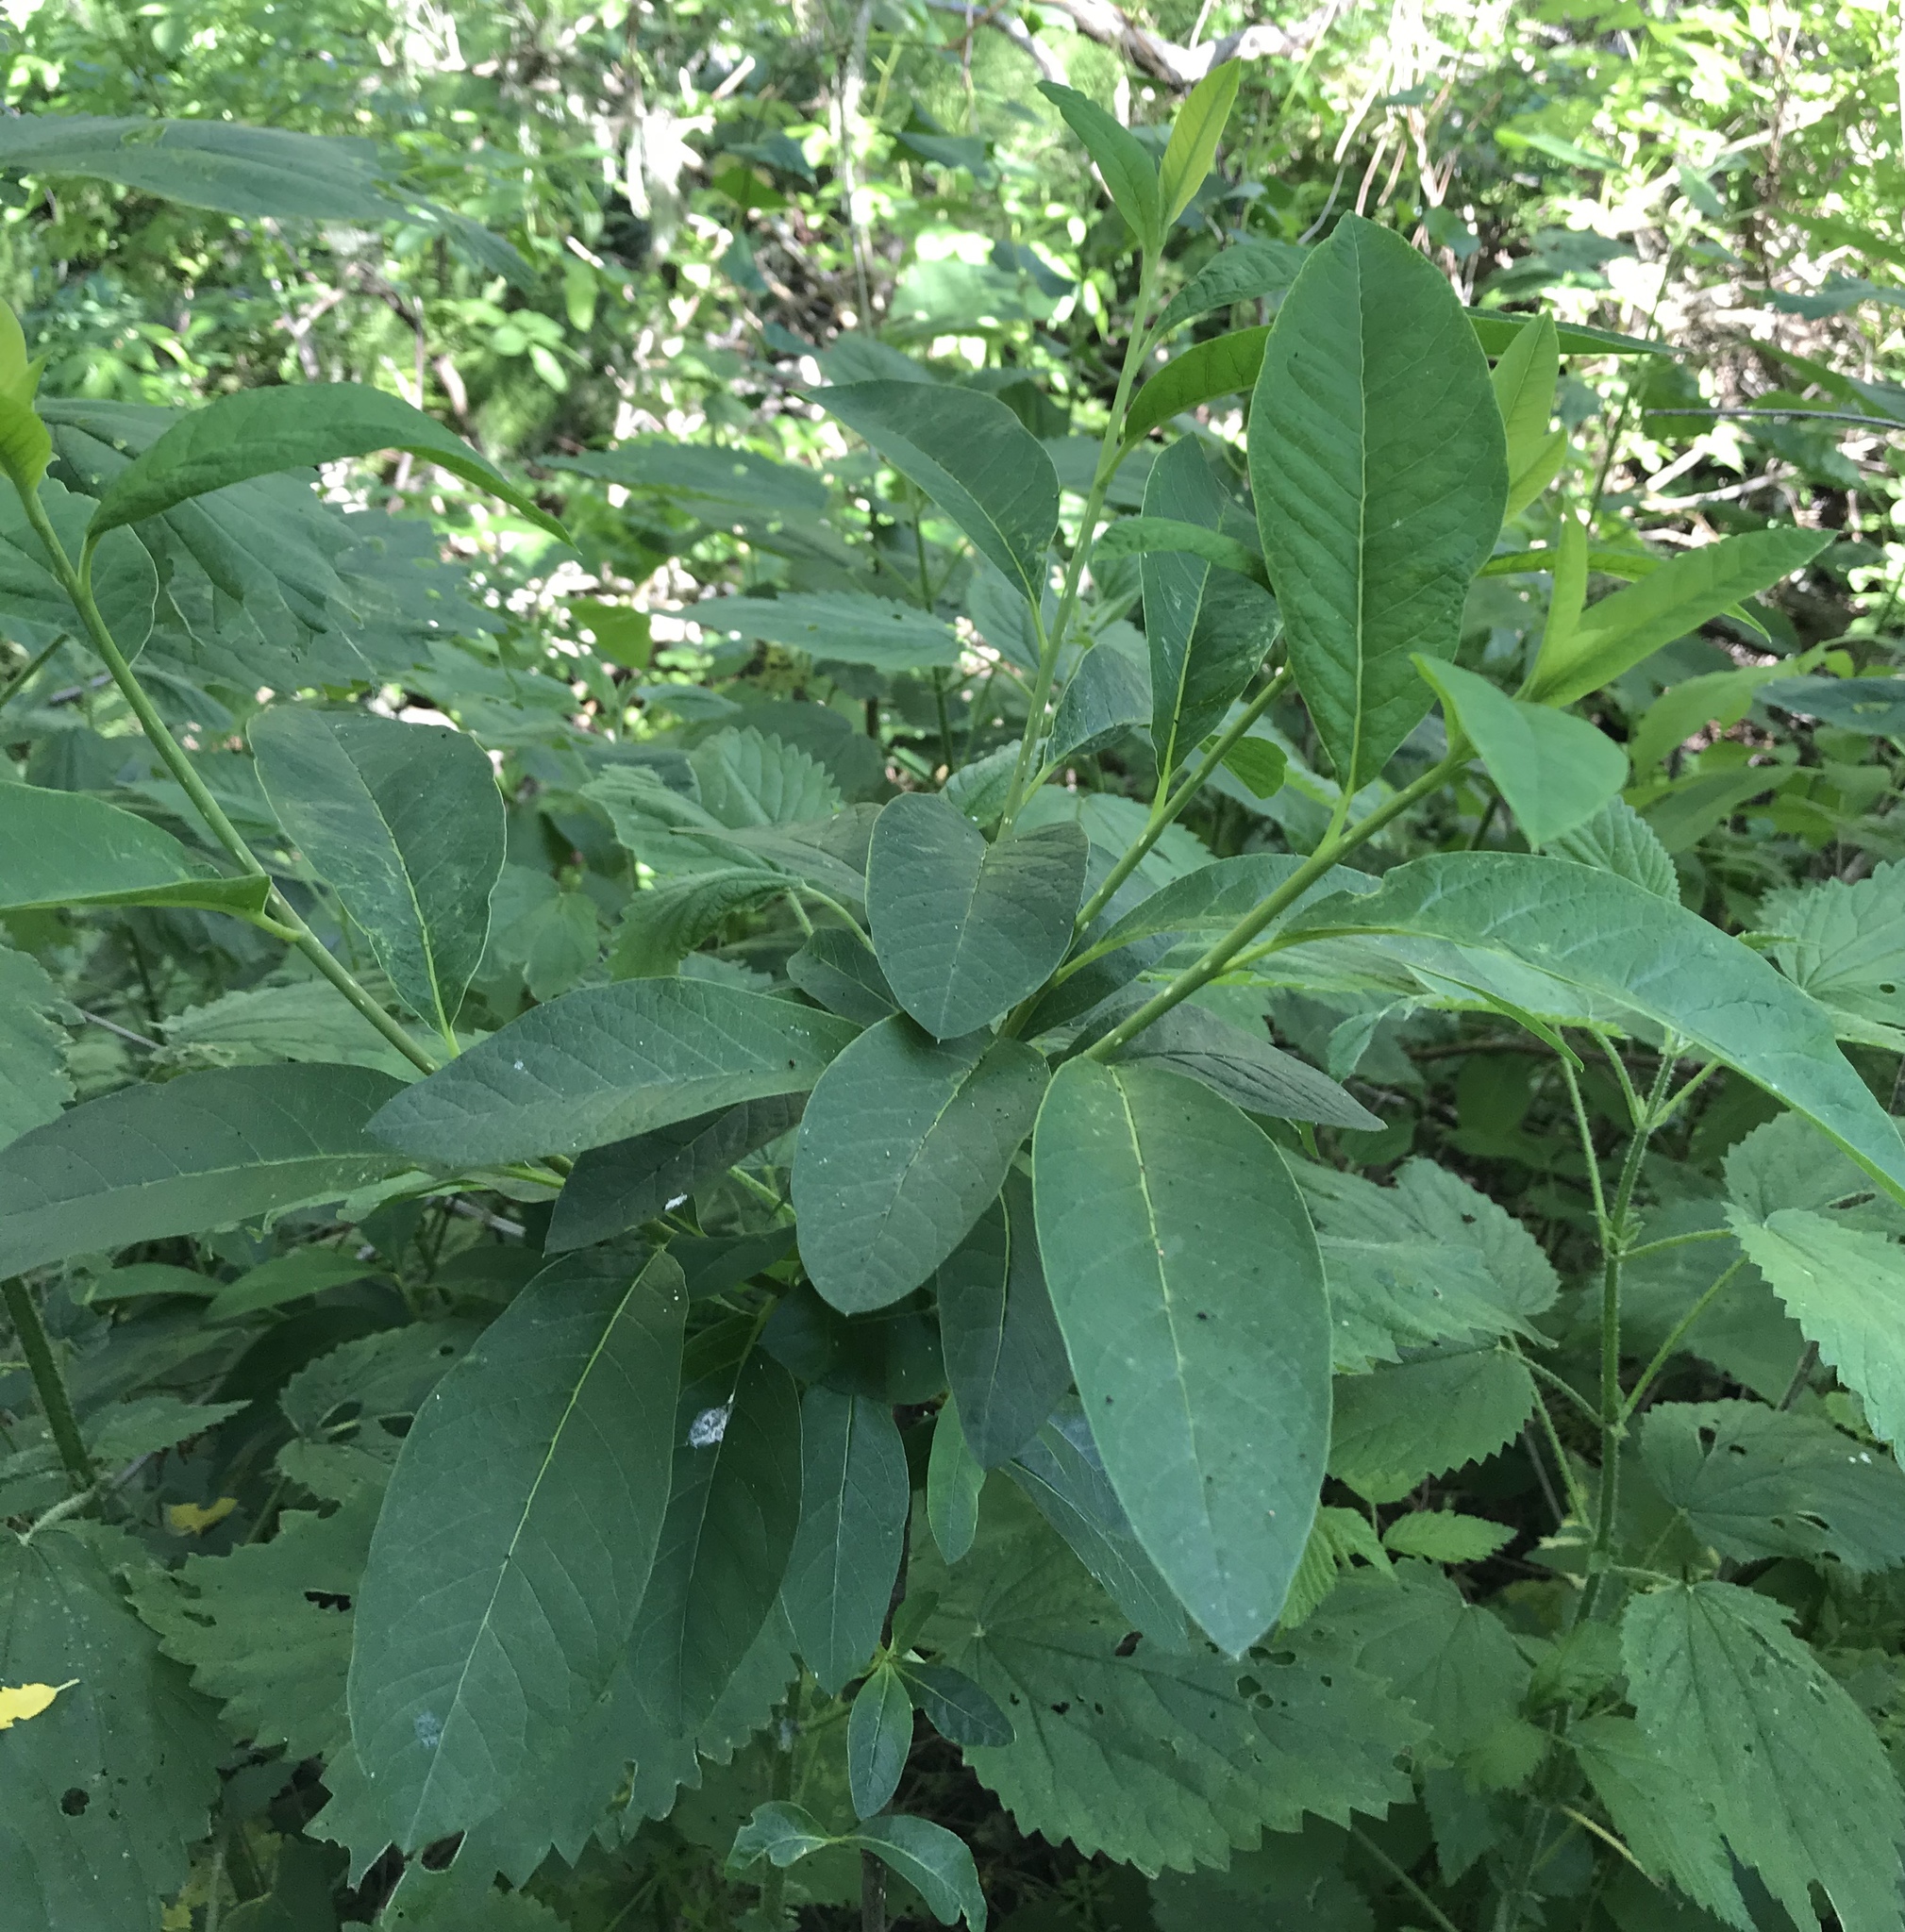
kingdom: Plantae
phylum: Tracheophyta
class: Magnoliopsida
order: Rosales
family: Rosaceae
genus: Oemleria
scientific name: Oemleria cerasiformis
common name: Osoberry
